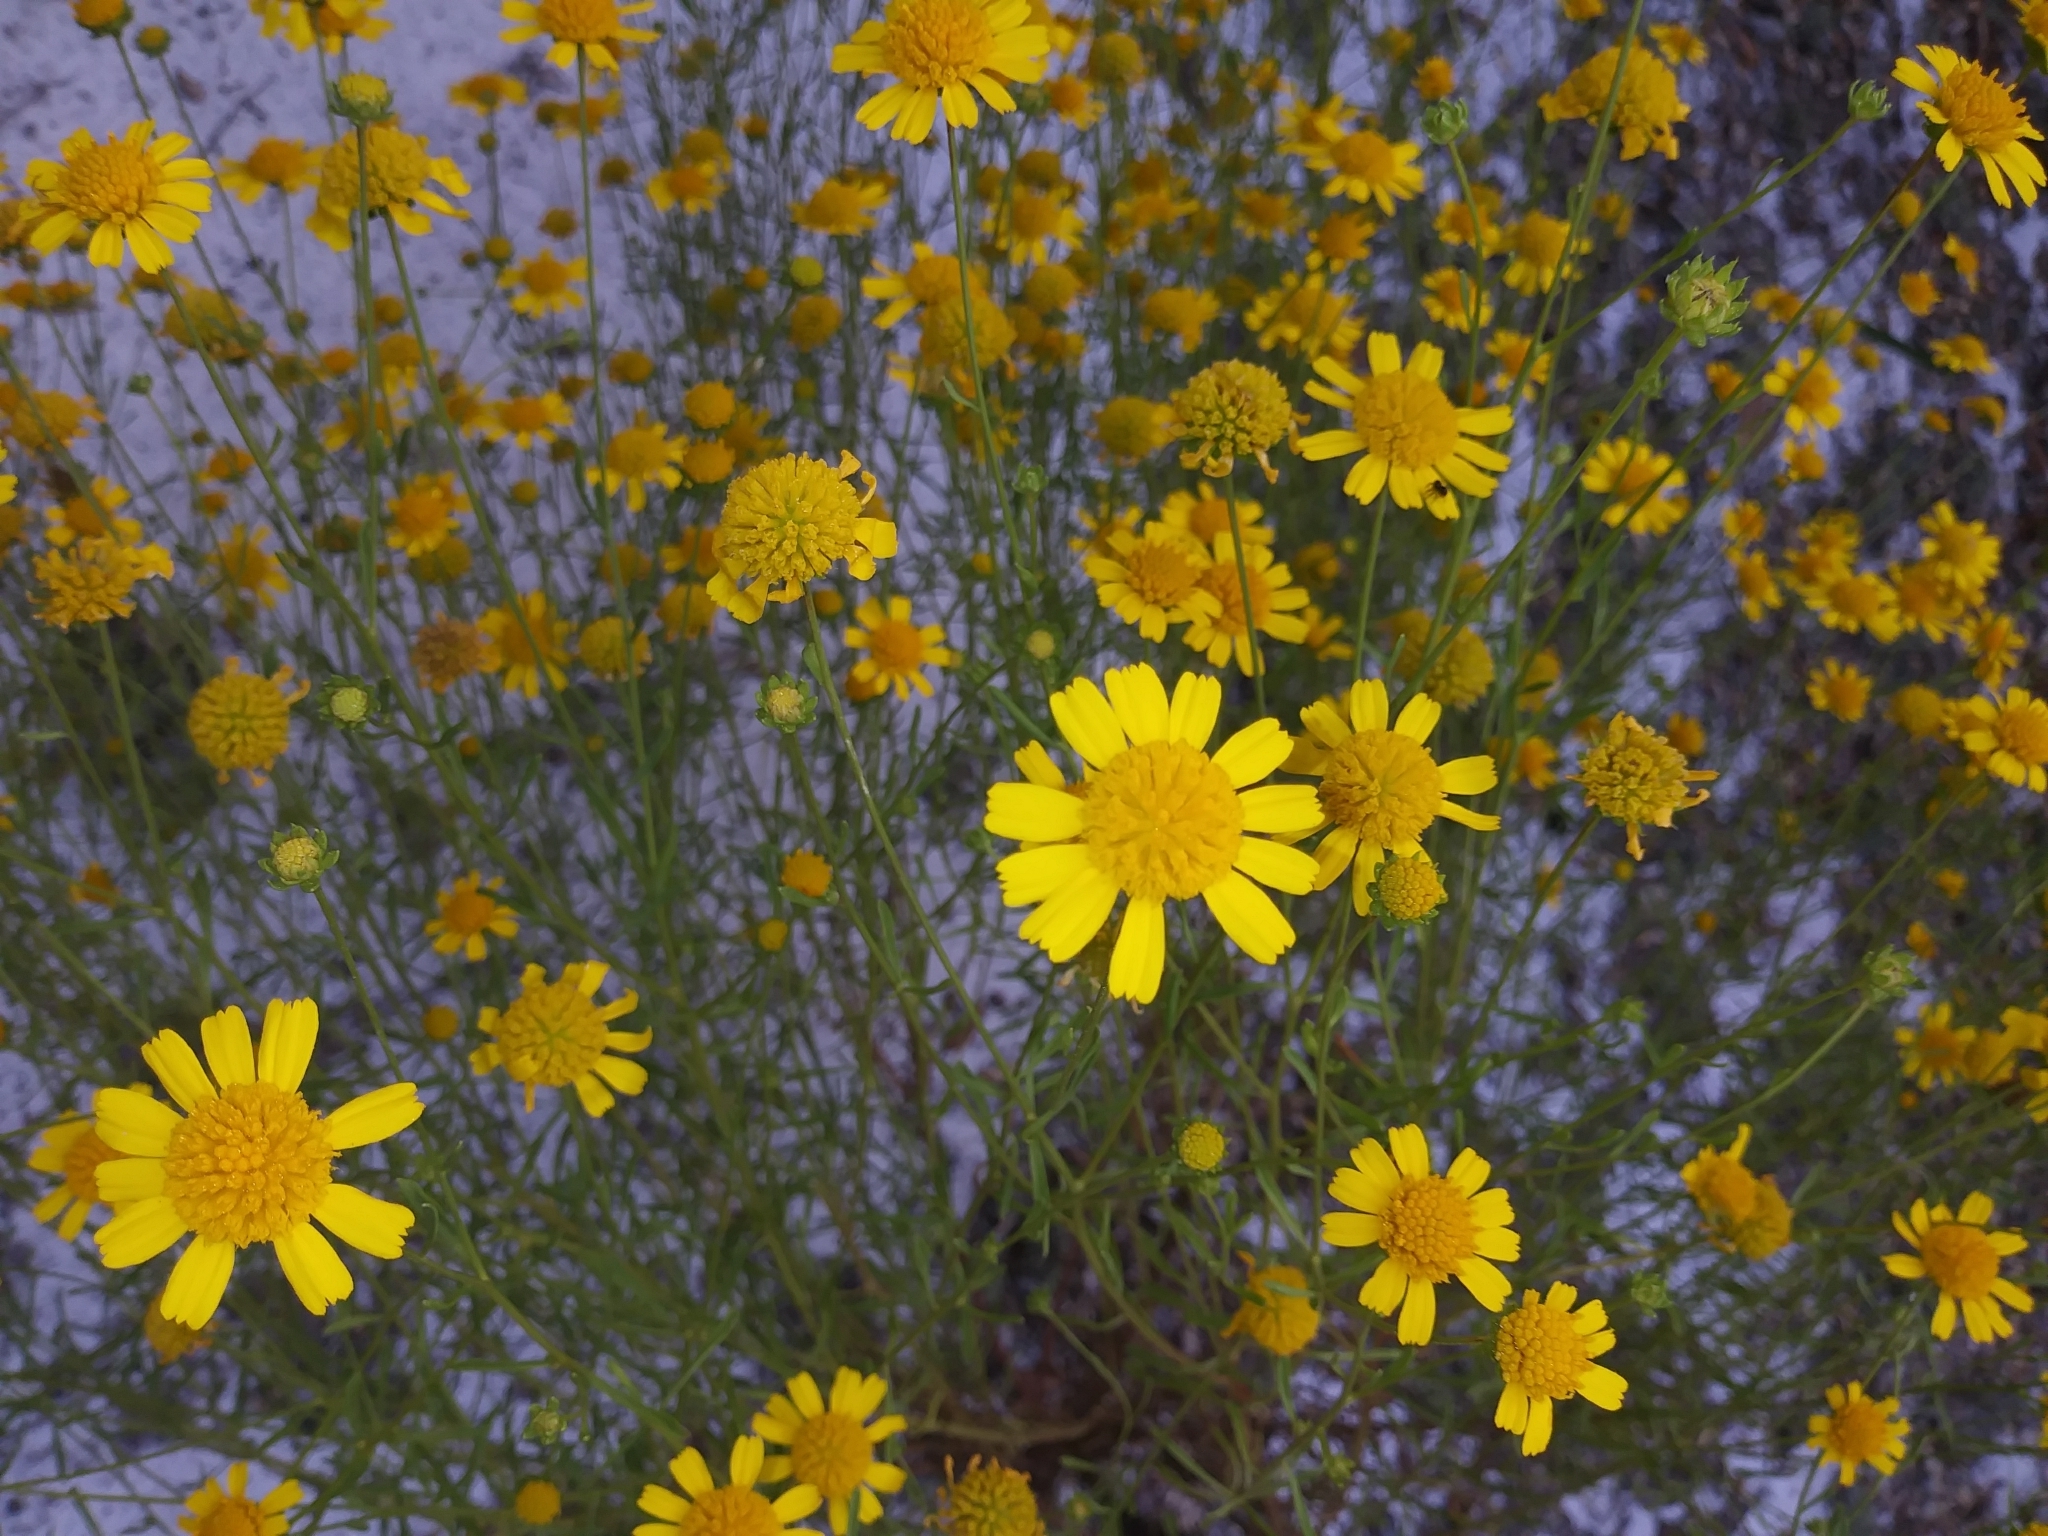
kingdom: Plantae
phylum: Tracheophyta
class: Magnoliopsida
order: Asterales
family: Asteraceae
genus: Balduina
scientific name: Balduina angustifolia
